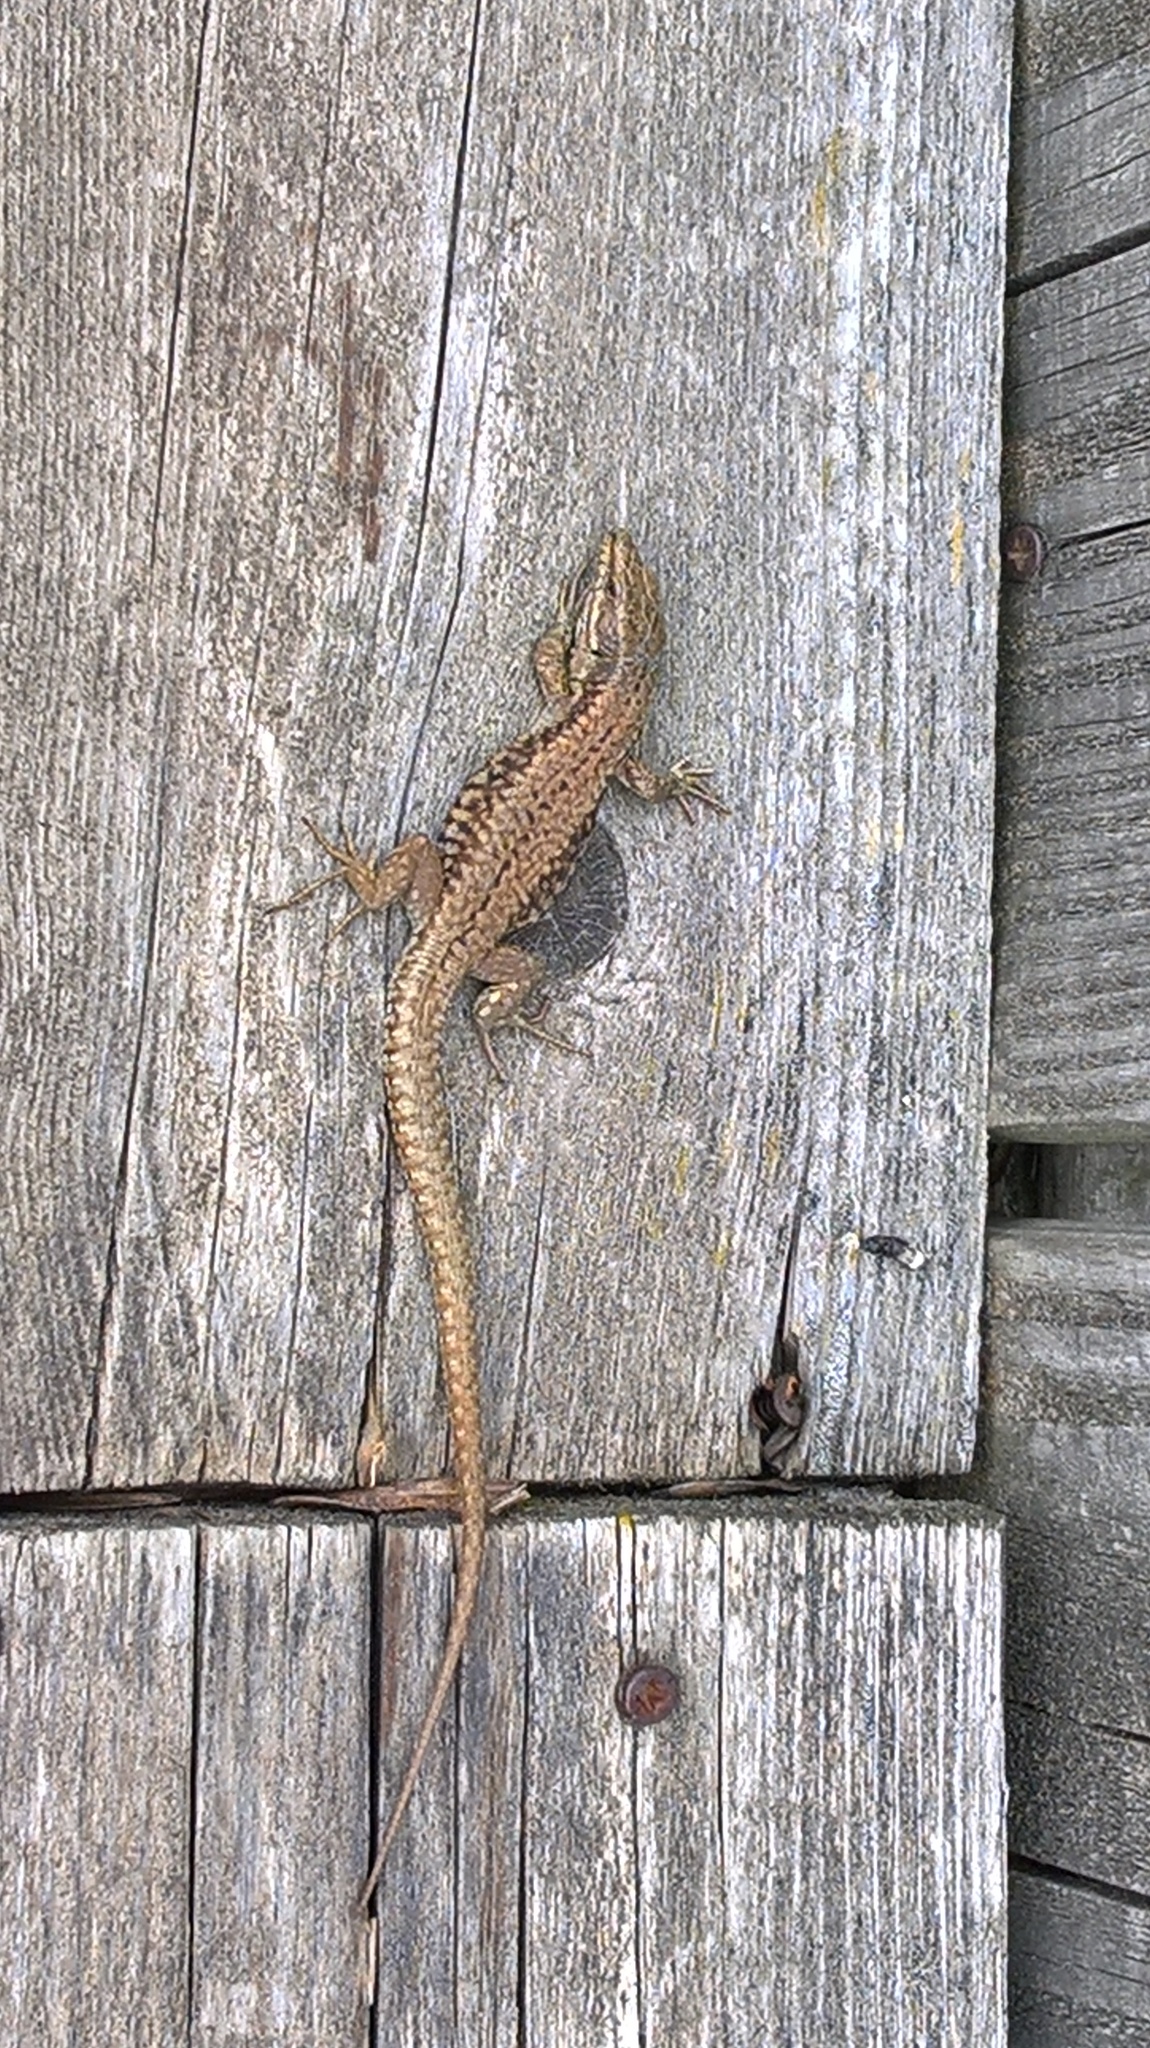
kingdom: Animalia
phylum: Chordata
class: Squamata
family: Lacertidae
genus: Podarcis
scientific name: Podarcis muralis
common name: Common wall lizard
